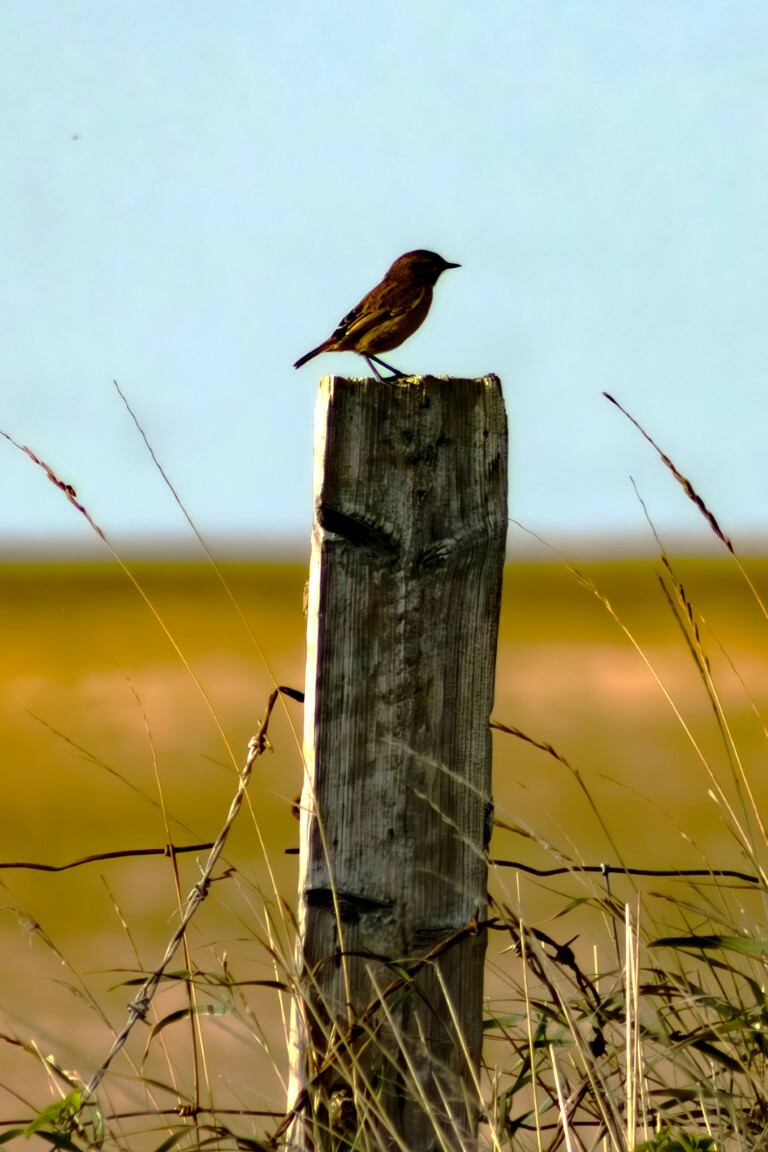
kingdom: Animalia
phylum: Chordata
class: Aves
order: Passeriformes
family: Muscicapidae
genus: Saxicola
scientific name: Saxicola rubicola
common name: European stonechat
